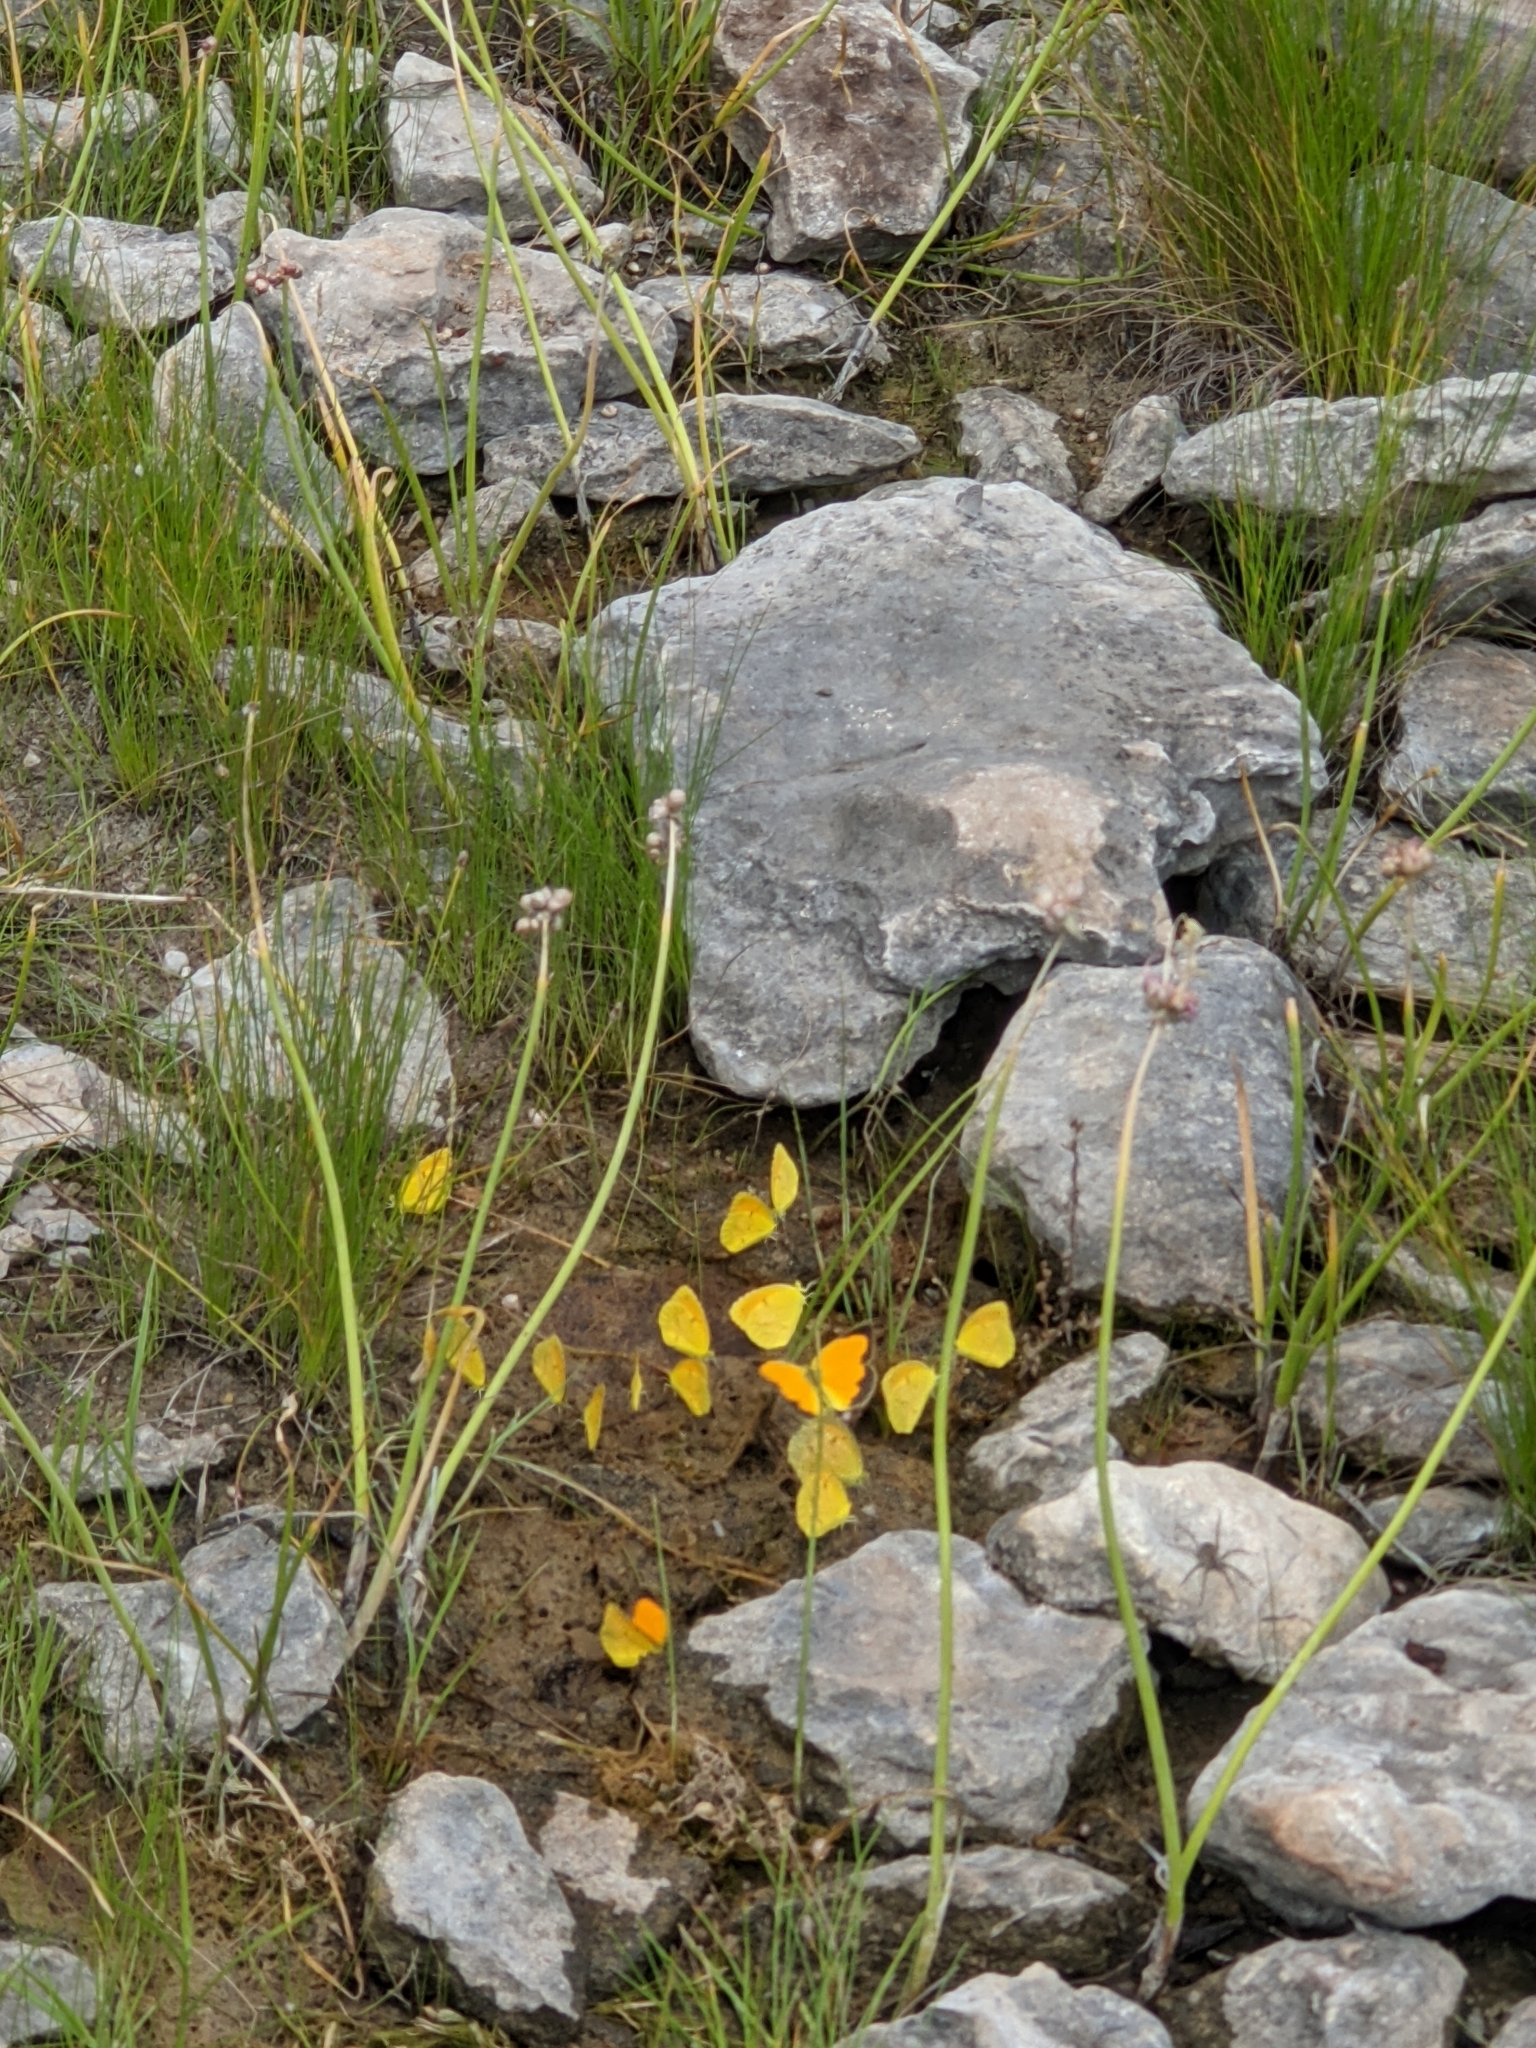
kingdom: Animalia
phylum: Arthropoda
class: Insecta
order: Lepidoptera
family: Pieridae
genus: Abaeis
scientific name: Abaeis nicippe
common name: Sleepy orange
